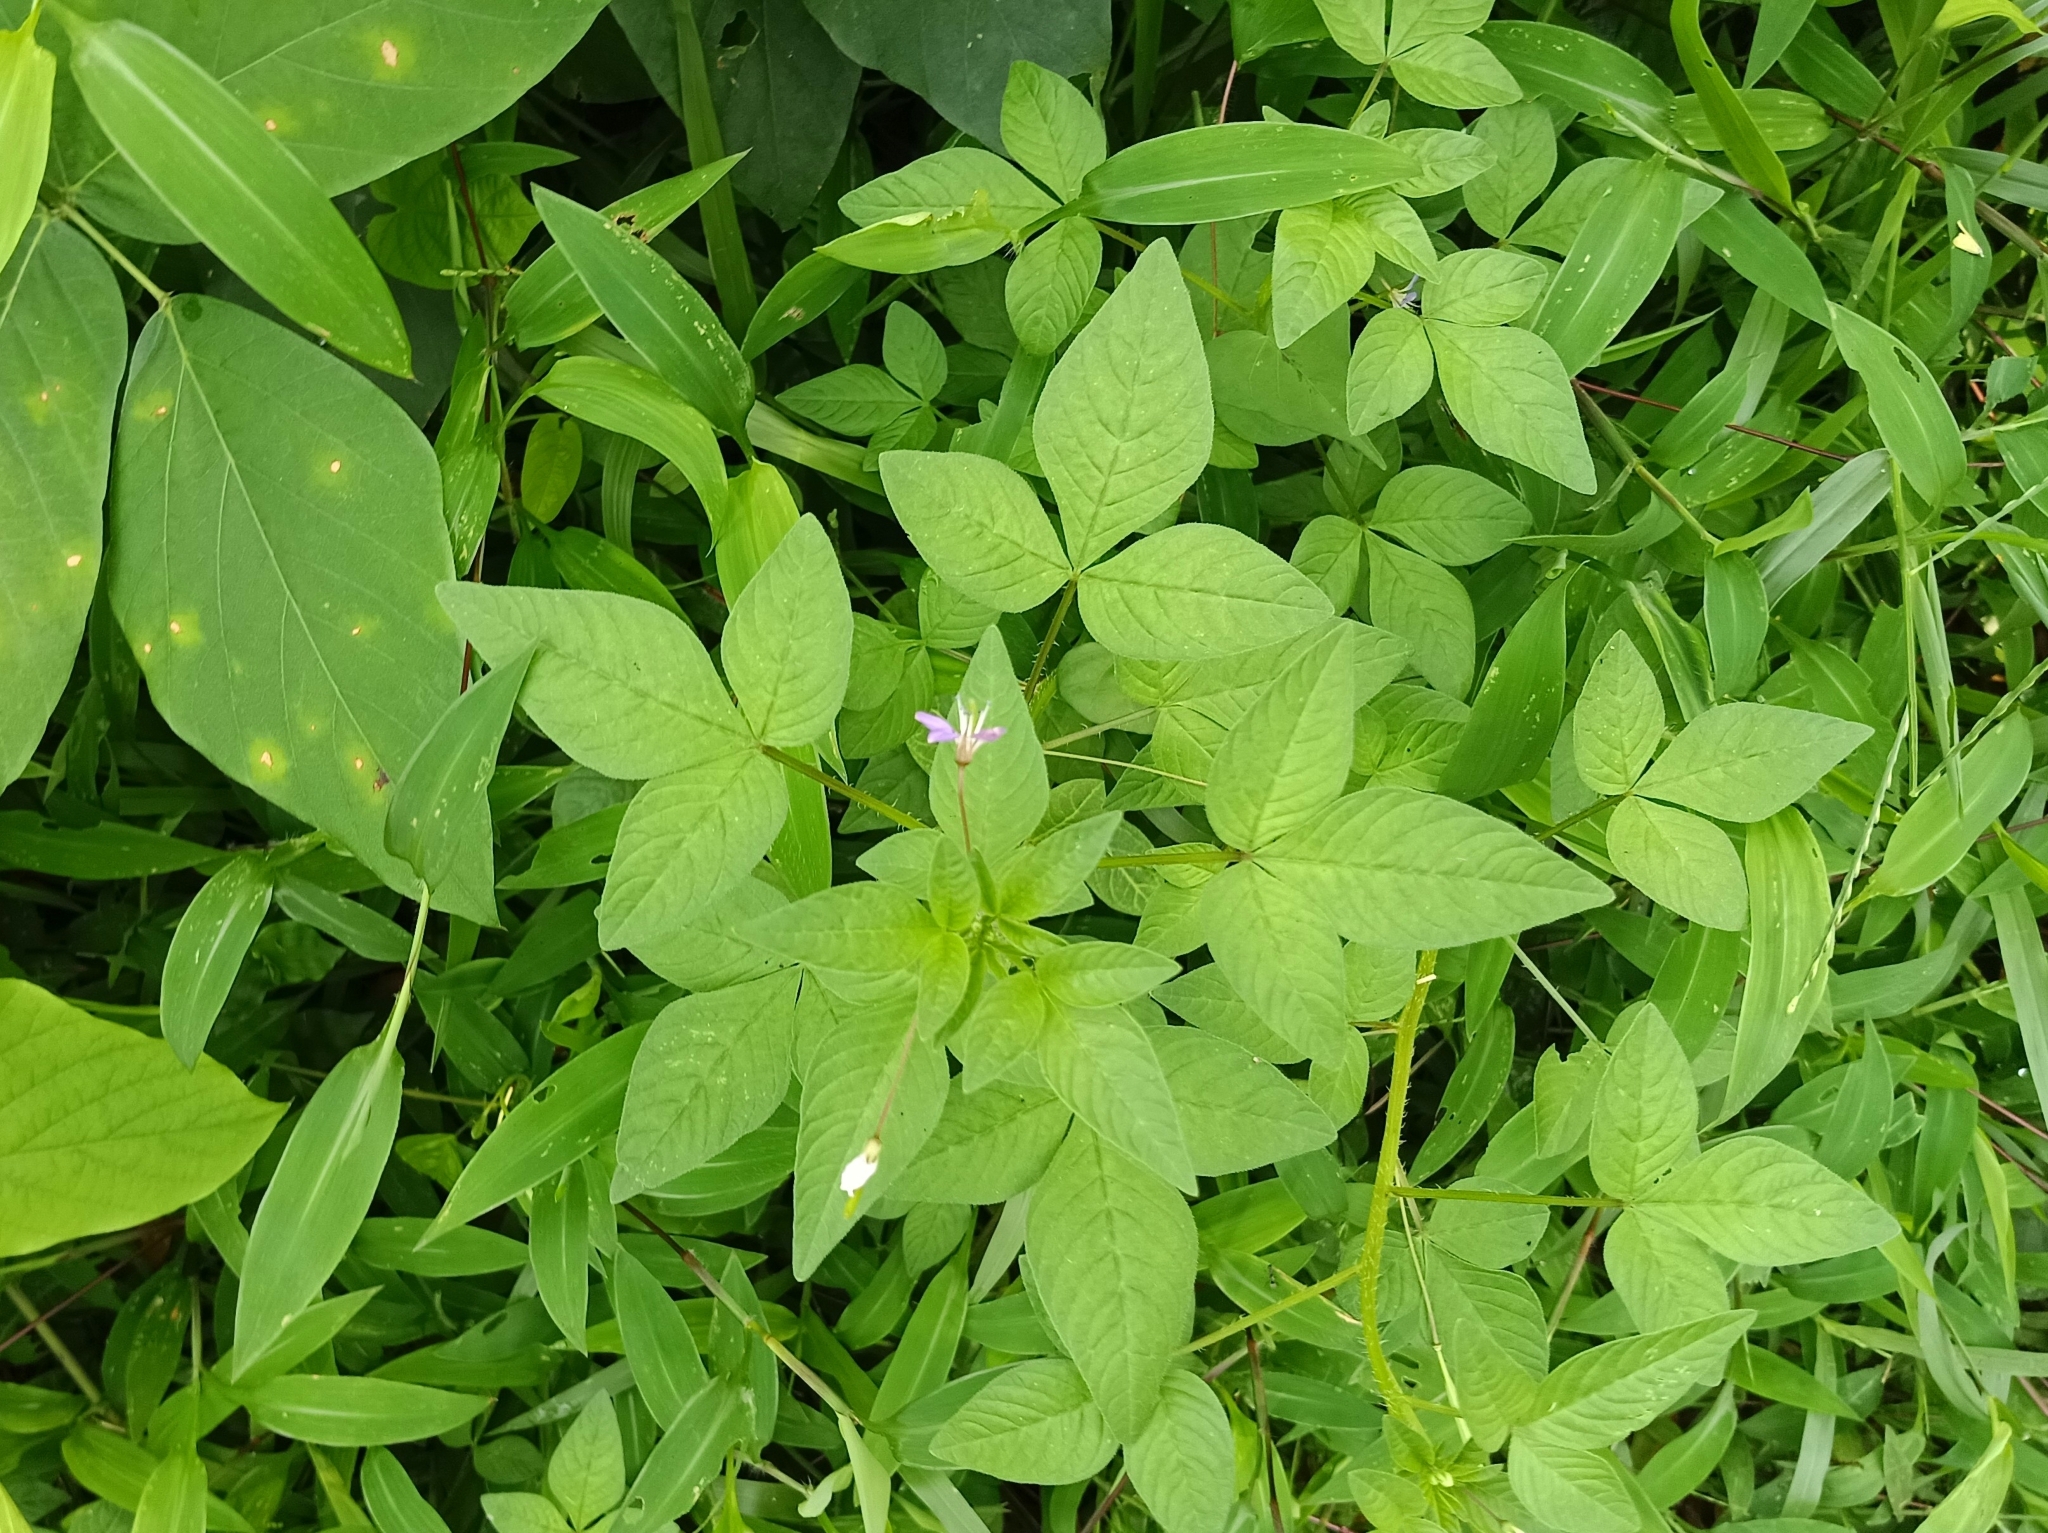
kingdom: Plantae
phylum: Tracheophyta
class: Magnoliopsida
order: Brassicales
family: Cleomaceae
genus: Sieruela
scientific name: Sieruela rutidosperma
